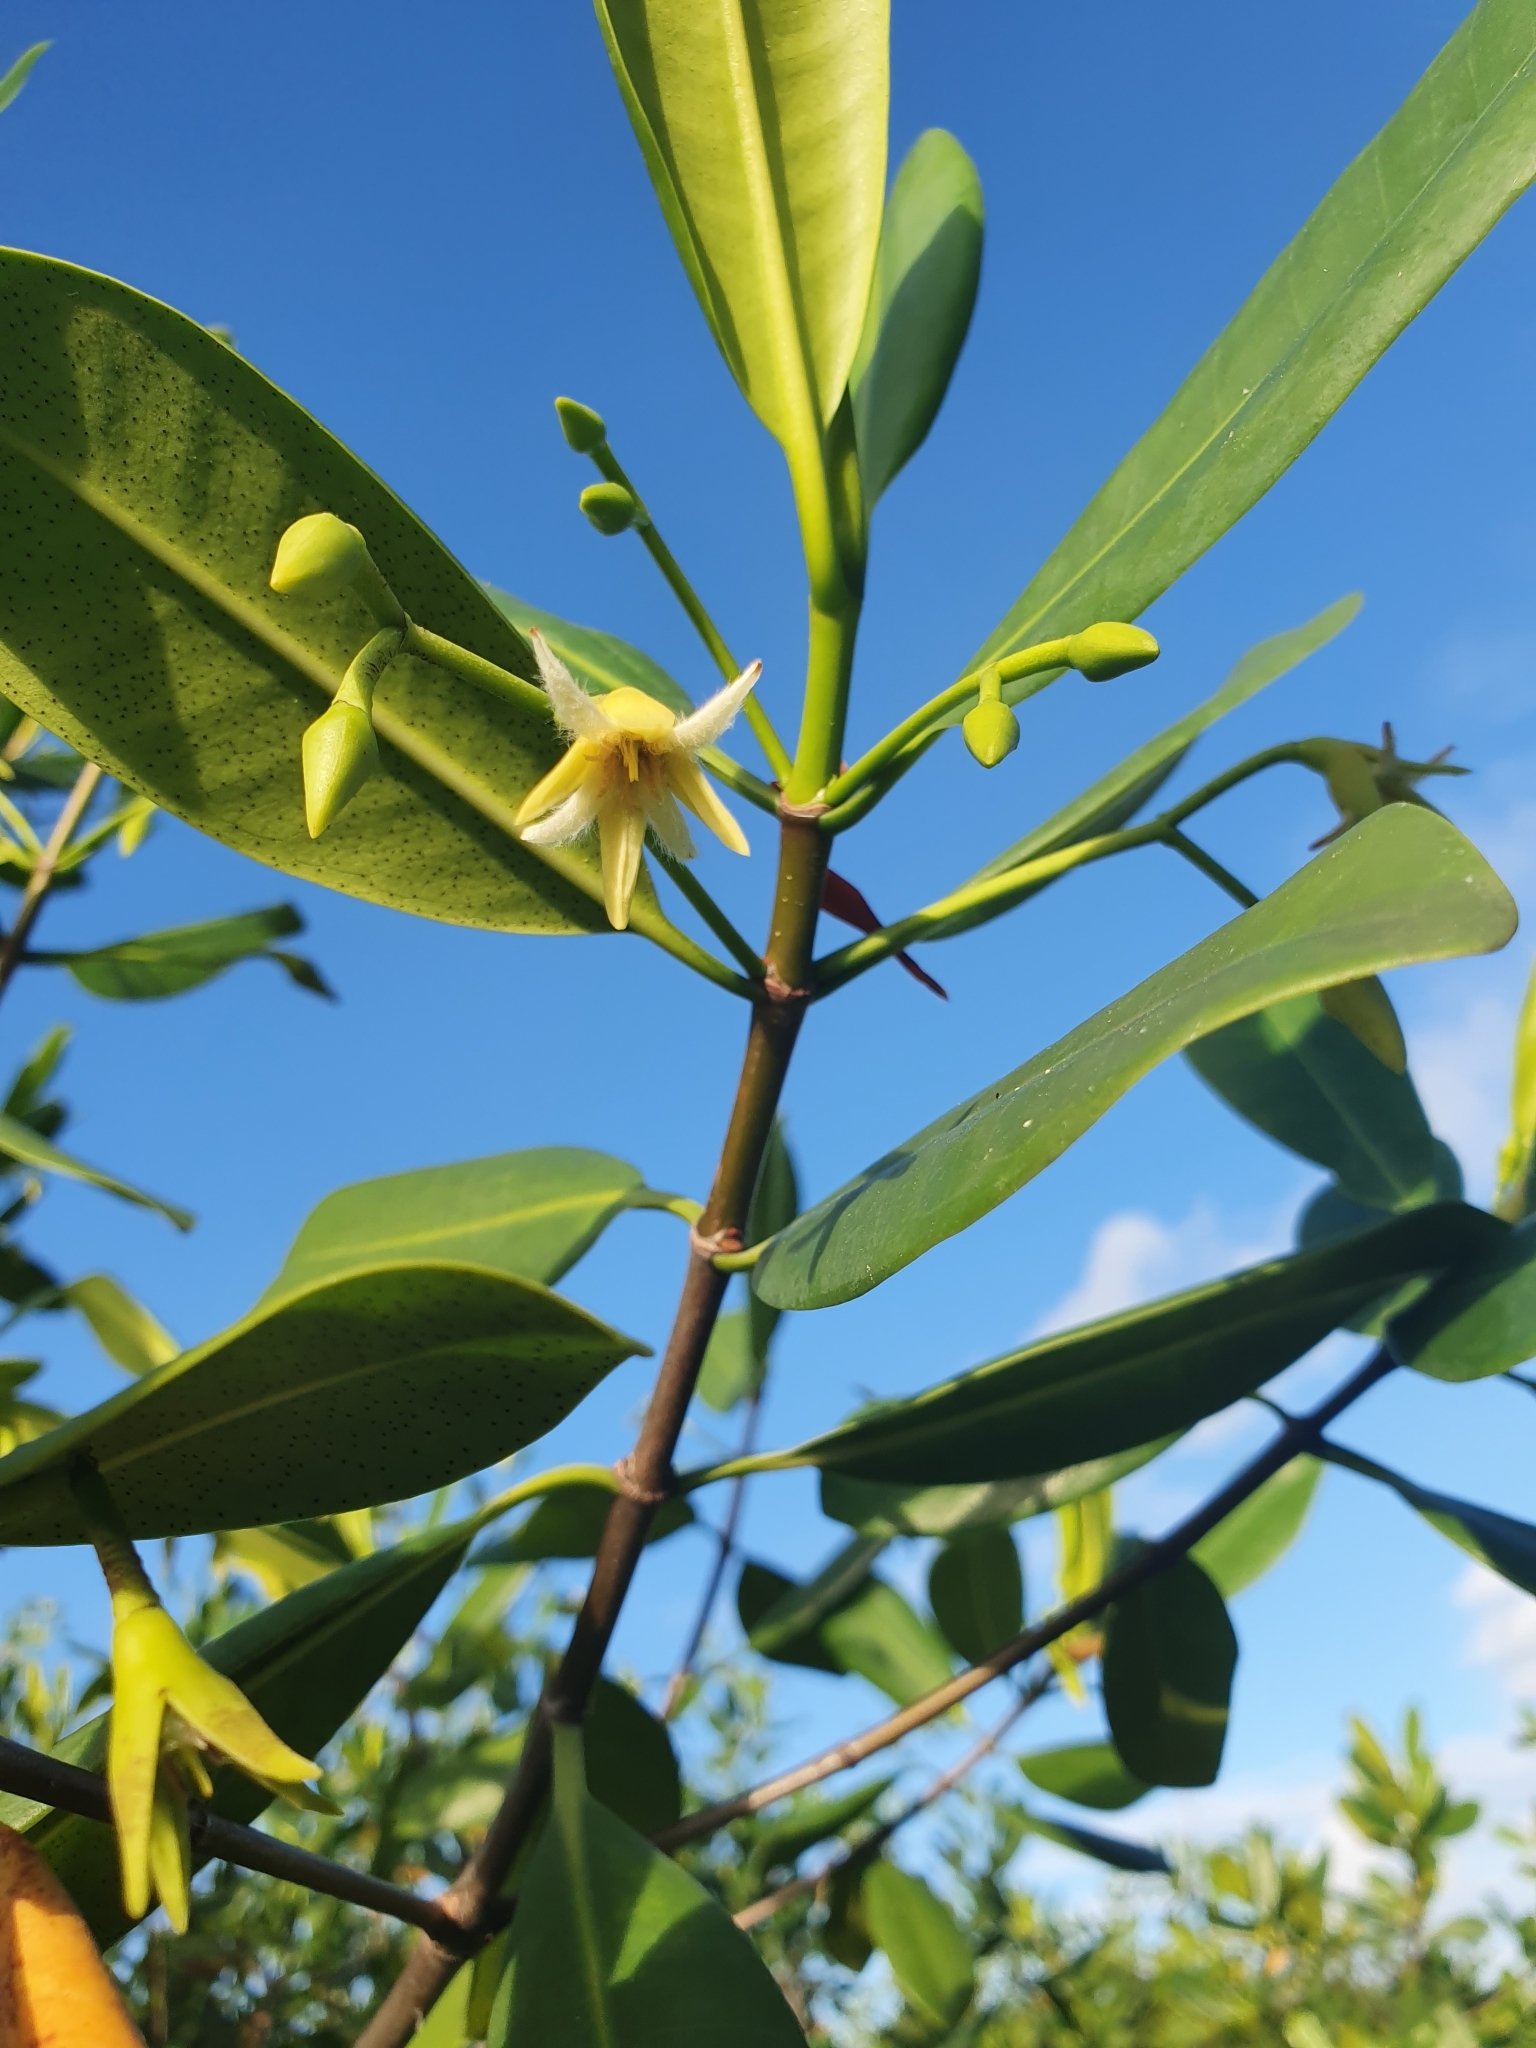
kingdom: Plantae
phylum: Tracheophyta
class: Magnoliopsida
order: Malpighiales
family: Rhizophoraceae
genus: Rhizophora
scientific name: Rhizophora mangle
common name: Red mangrove
